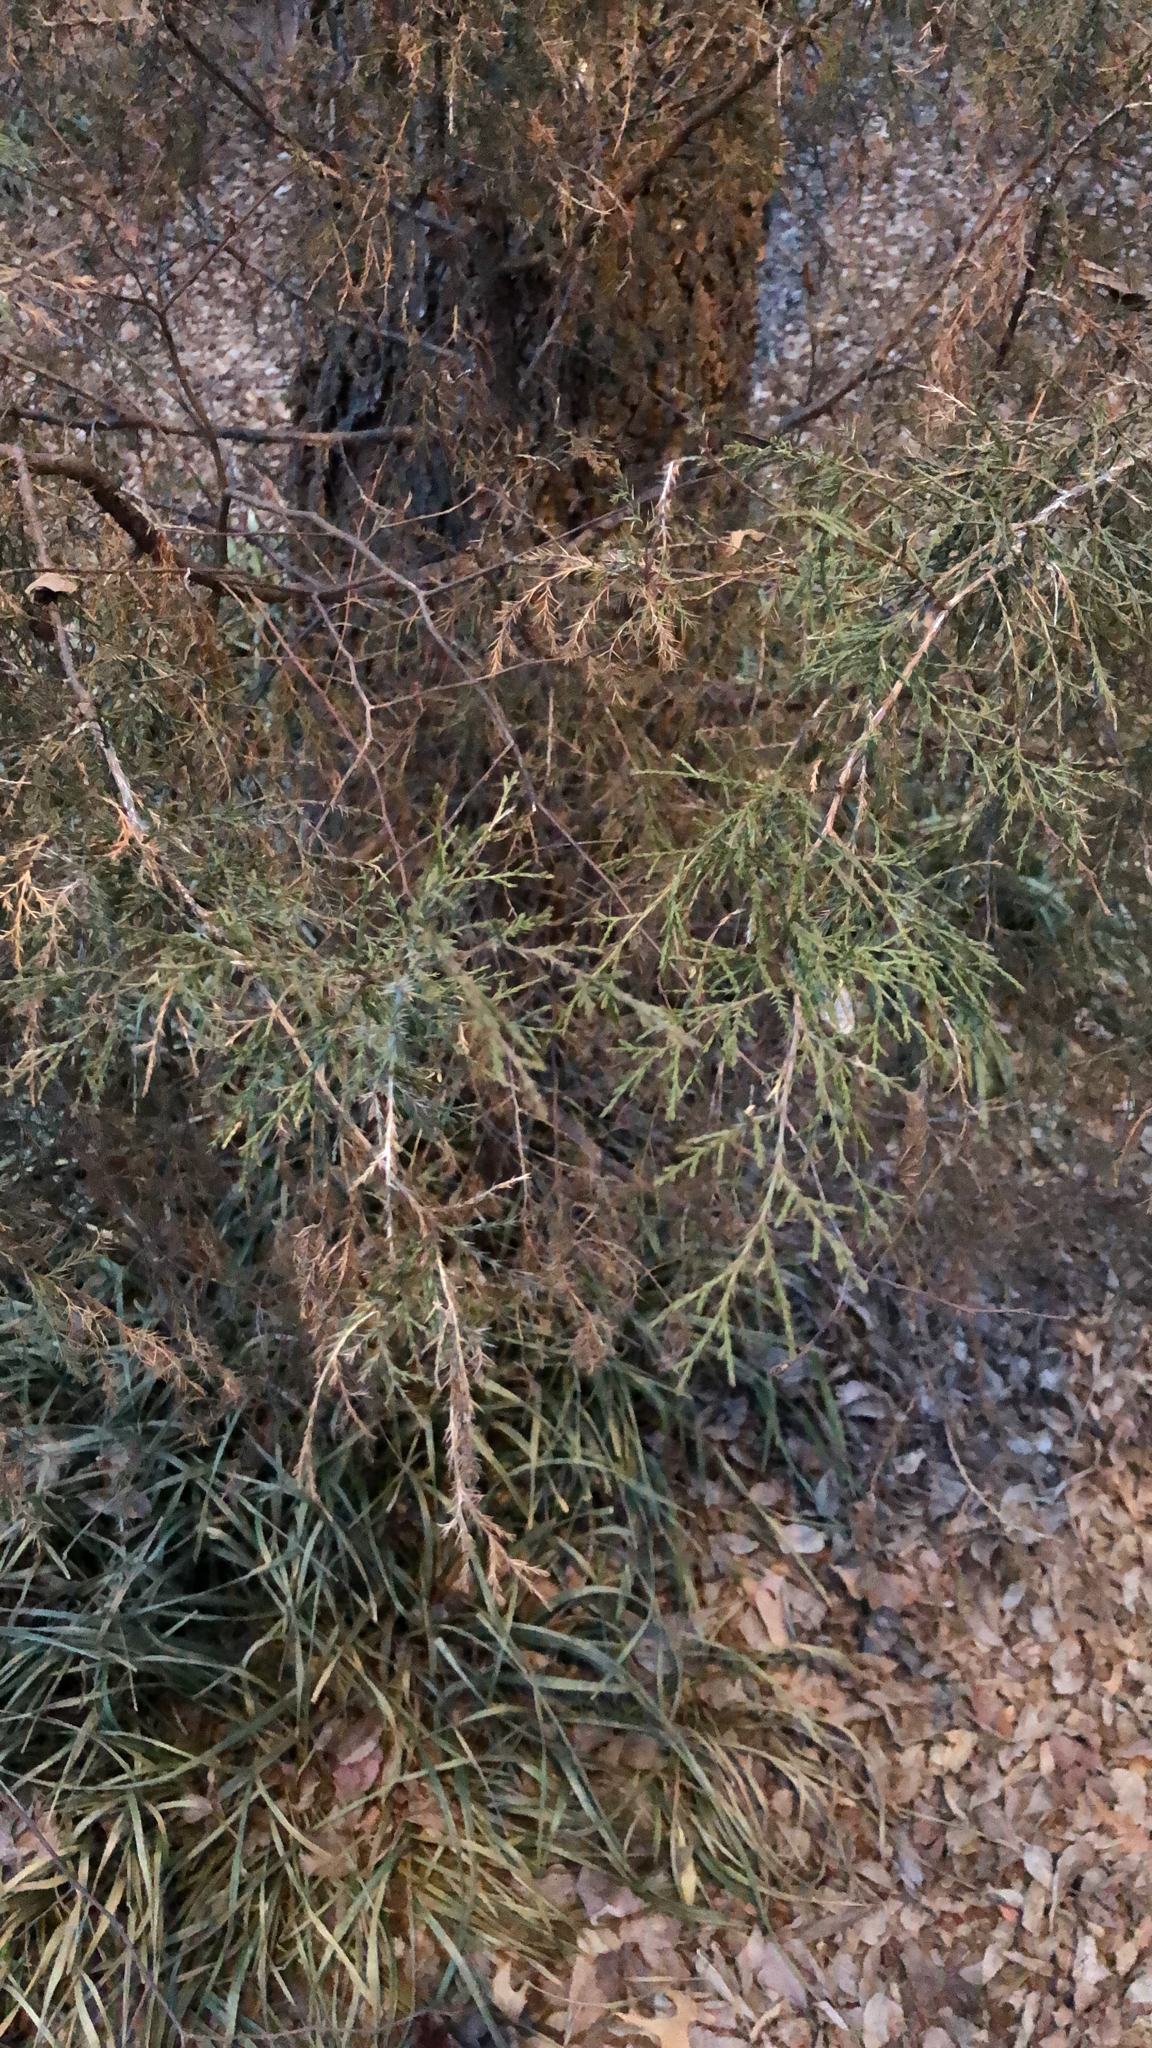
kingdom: Plantae
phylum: Tracheophyta
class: Pinopsida
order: Pinales
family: Cupressaceae
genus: Juniperus
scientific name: Juniperus virginiana
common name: Red juniper
